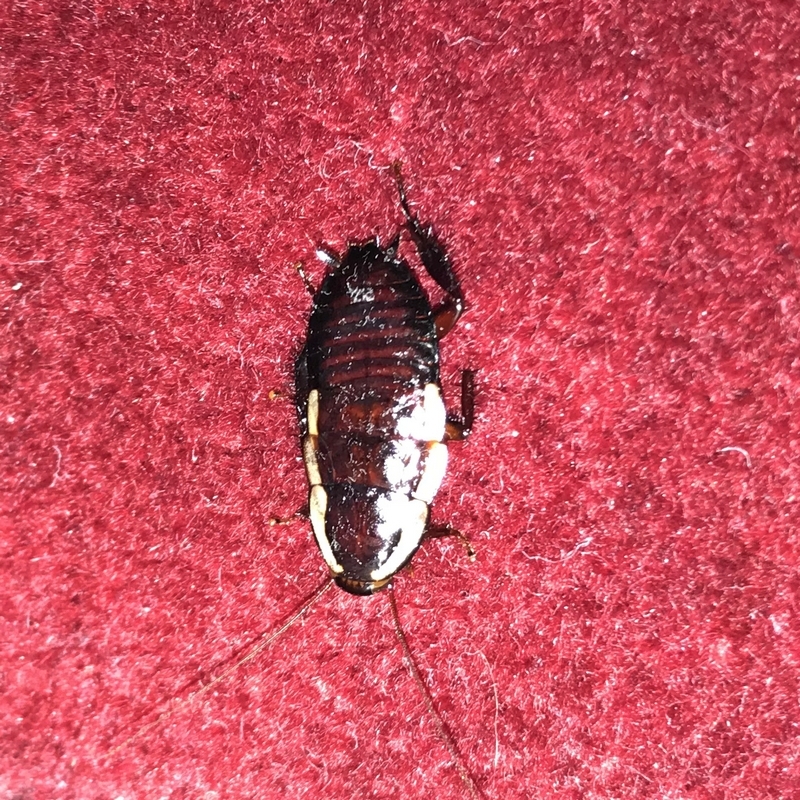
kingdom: Animalia
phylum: Arthropoda
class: Insecta
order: Blattodea
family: Blattidae
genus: Drymaplaneta
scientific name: Drymaplaneta semivitta
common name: Gisborne cockroach
